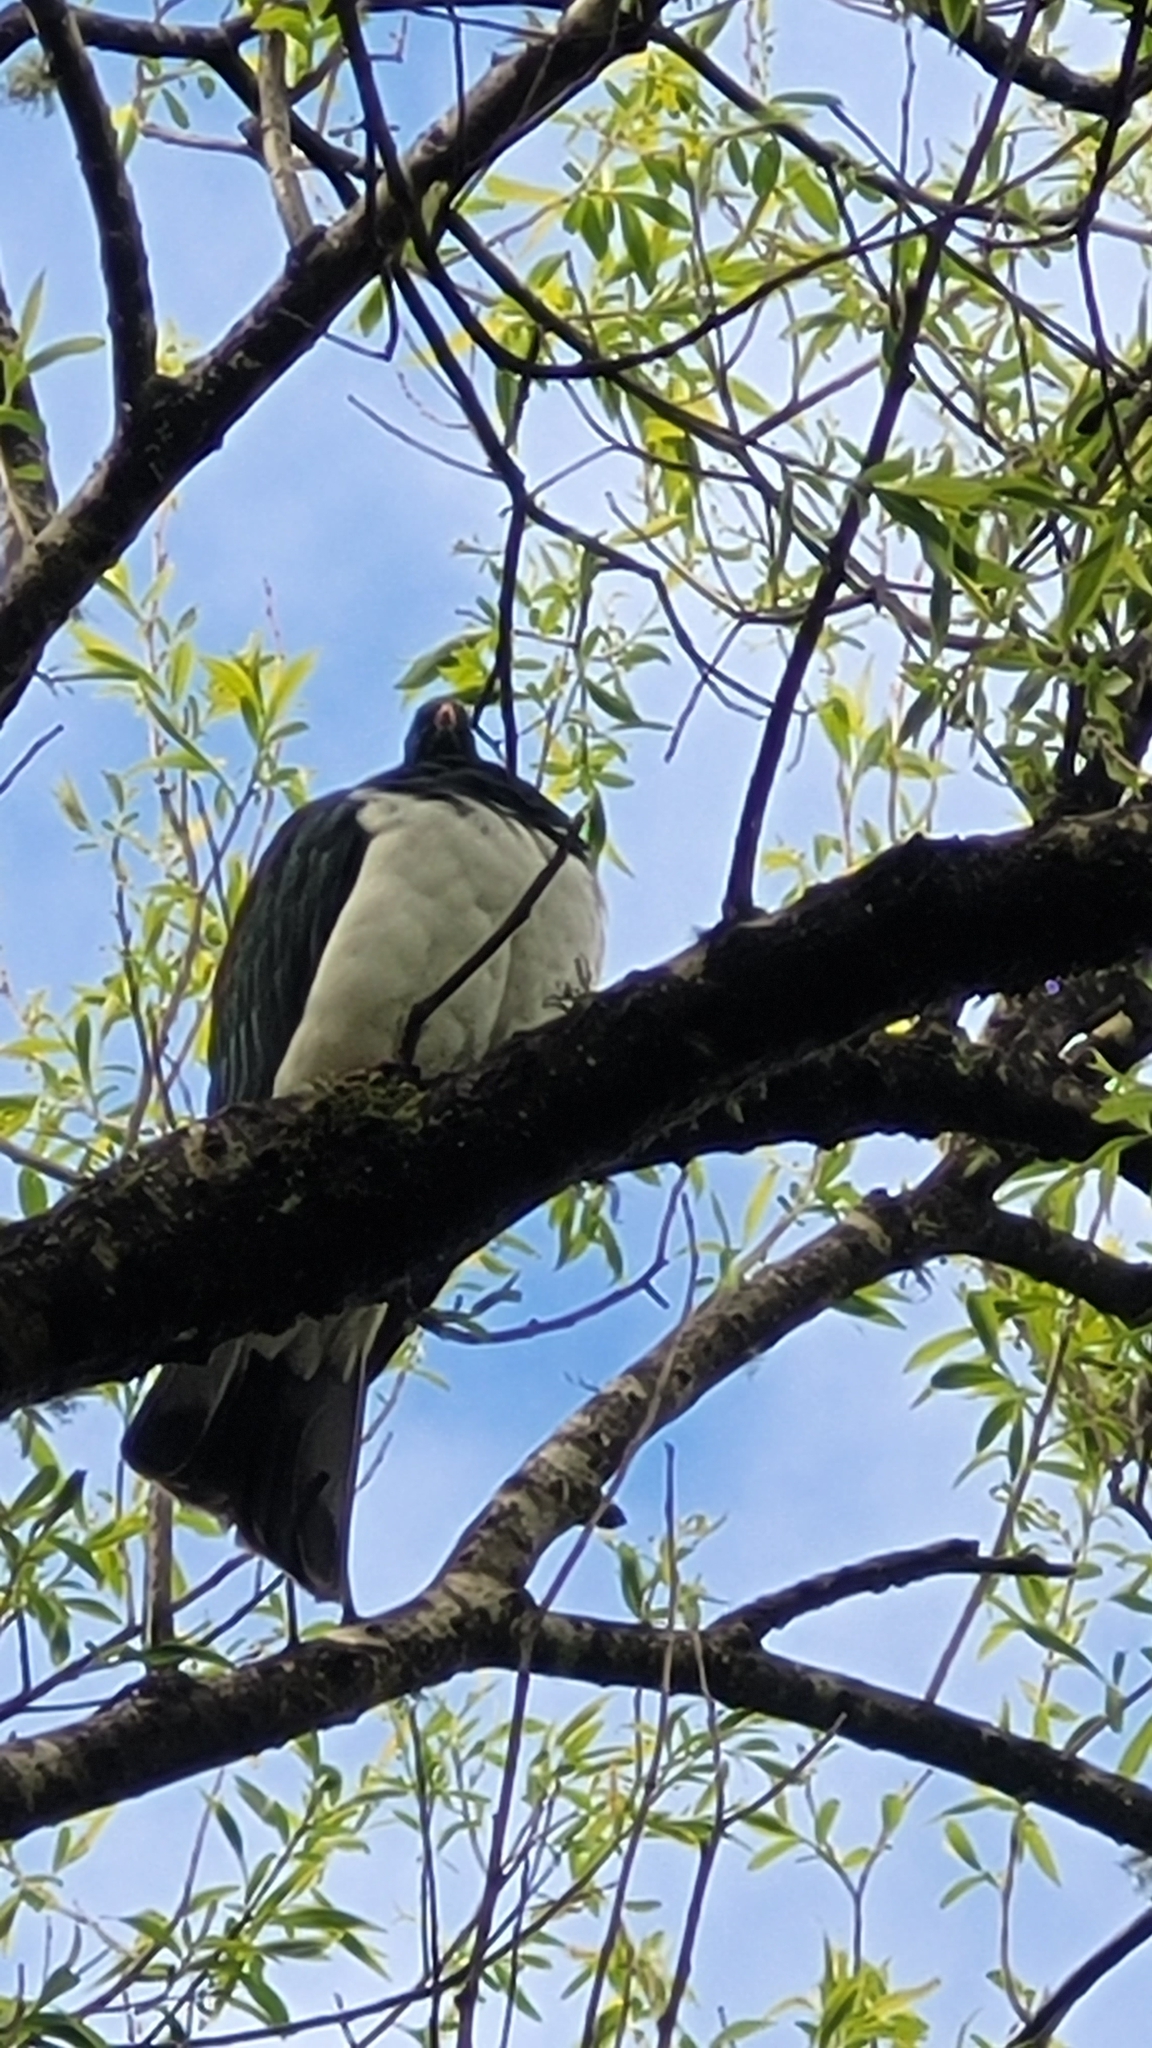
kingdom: Animalia
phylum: Chordata
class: Aves
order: Columbiformes
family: Columbidae
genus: Hemiphaga
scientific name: Hemiphaga novaeseelandiae
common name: New zealand pigeon
